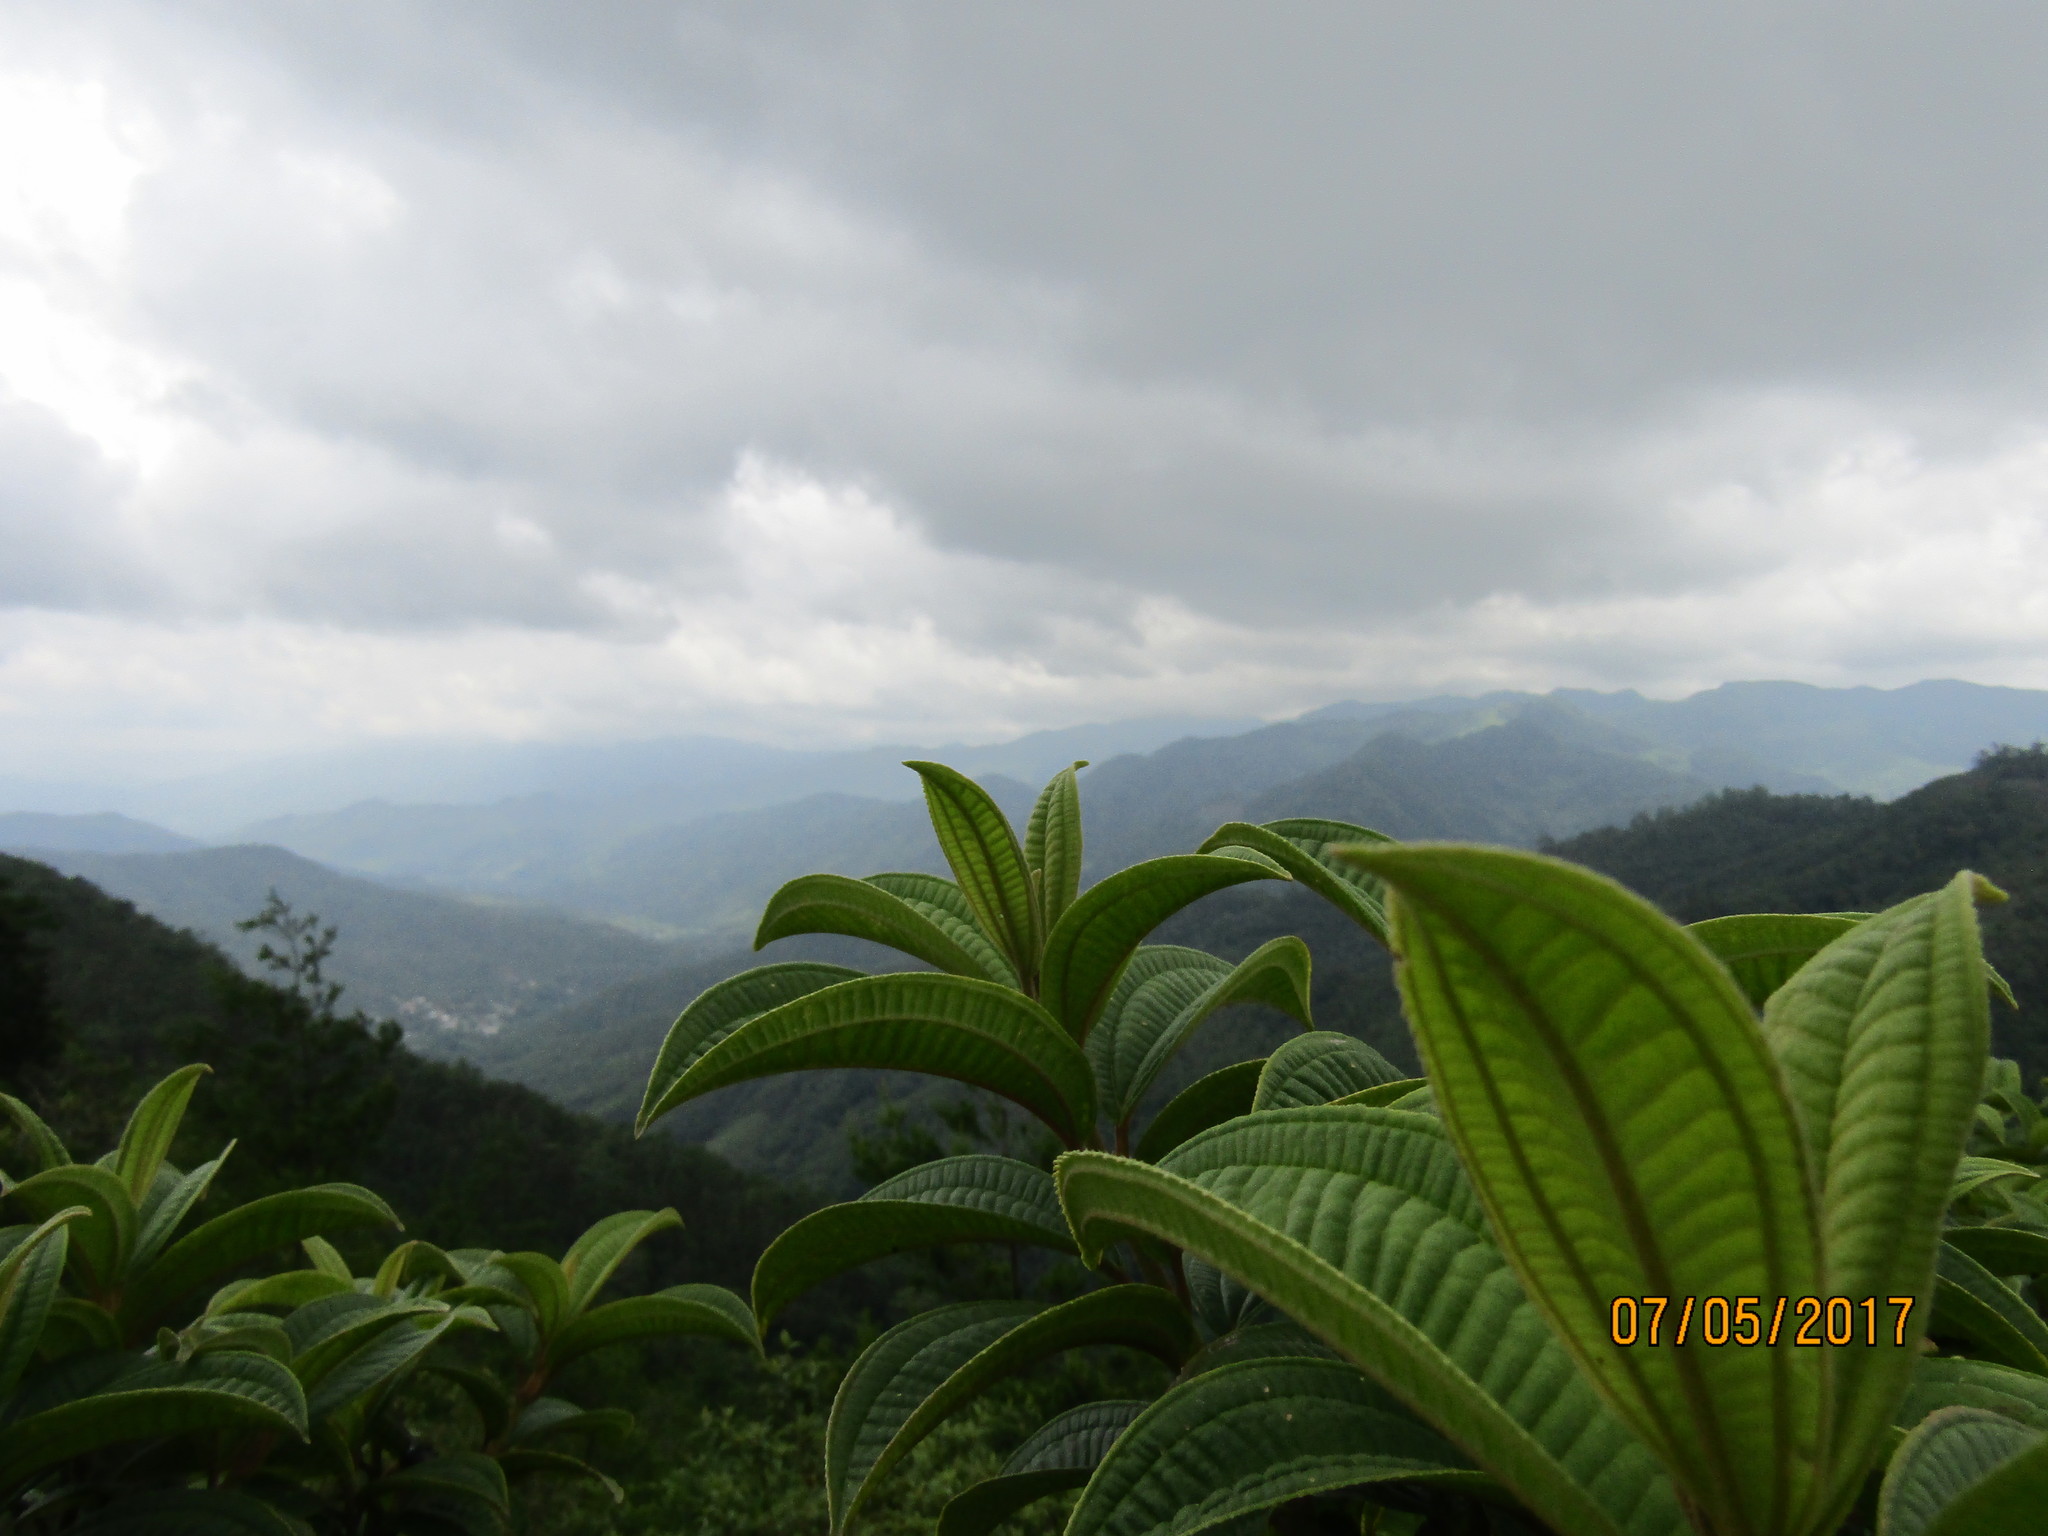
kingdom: Plantae
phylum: Tracheophyta
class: Magnoliopsida
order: Myrtales
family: Melastomataceae
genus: Miconia
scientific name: Miconia subhirsuta
